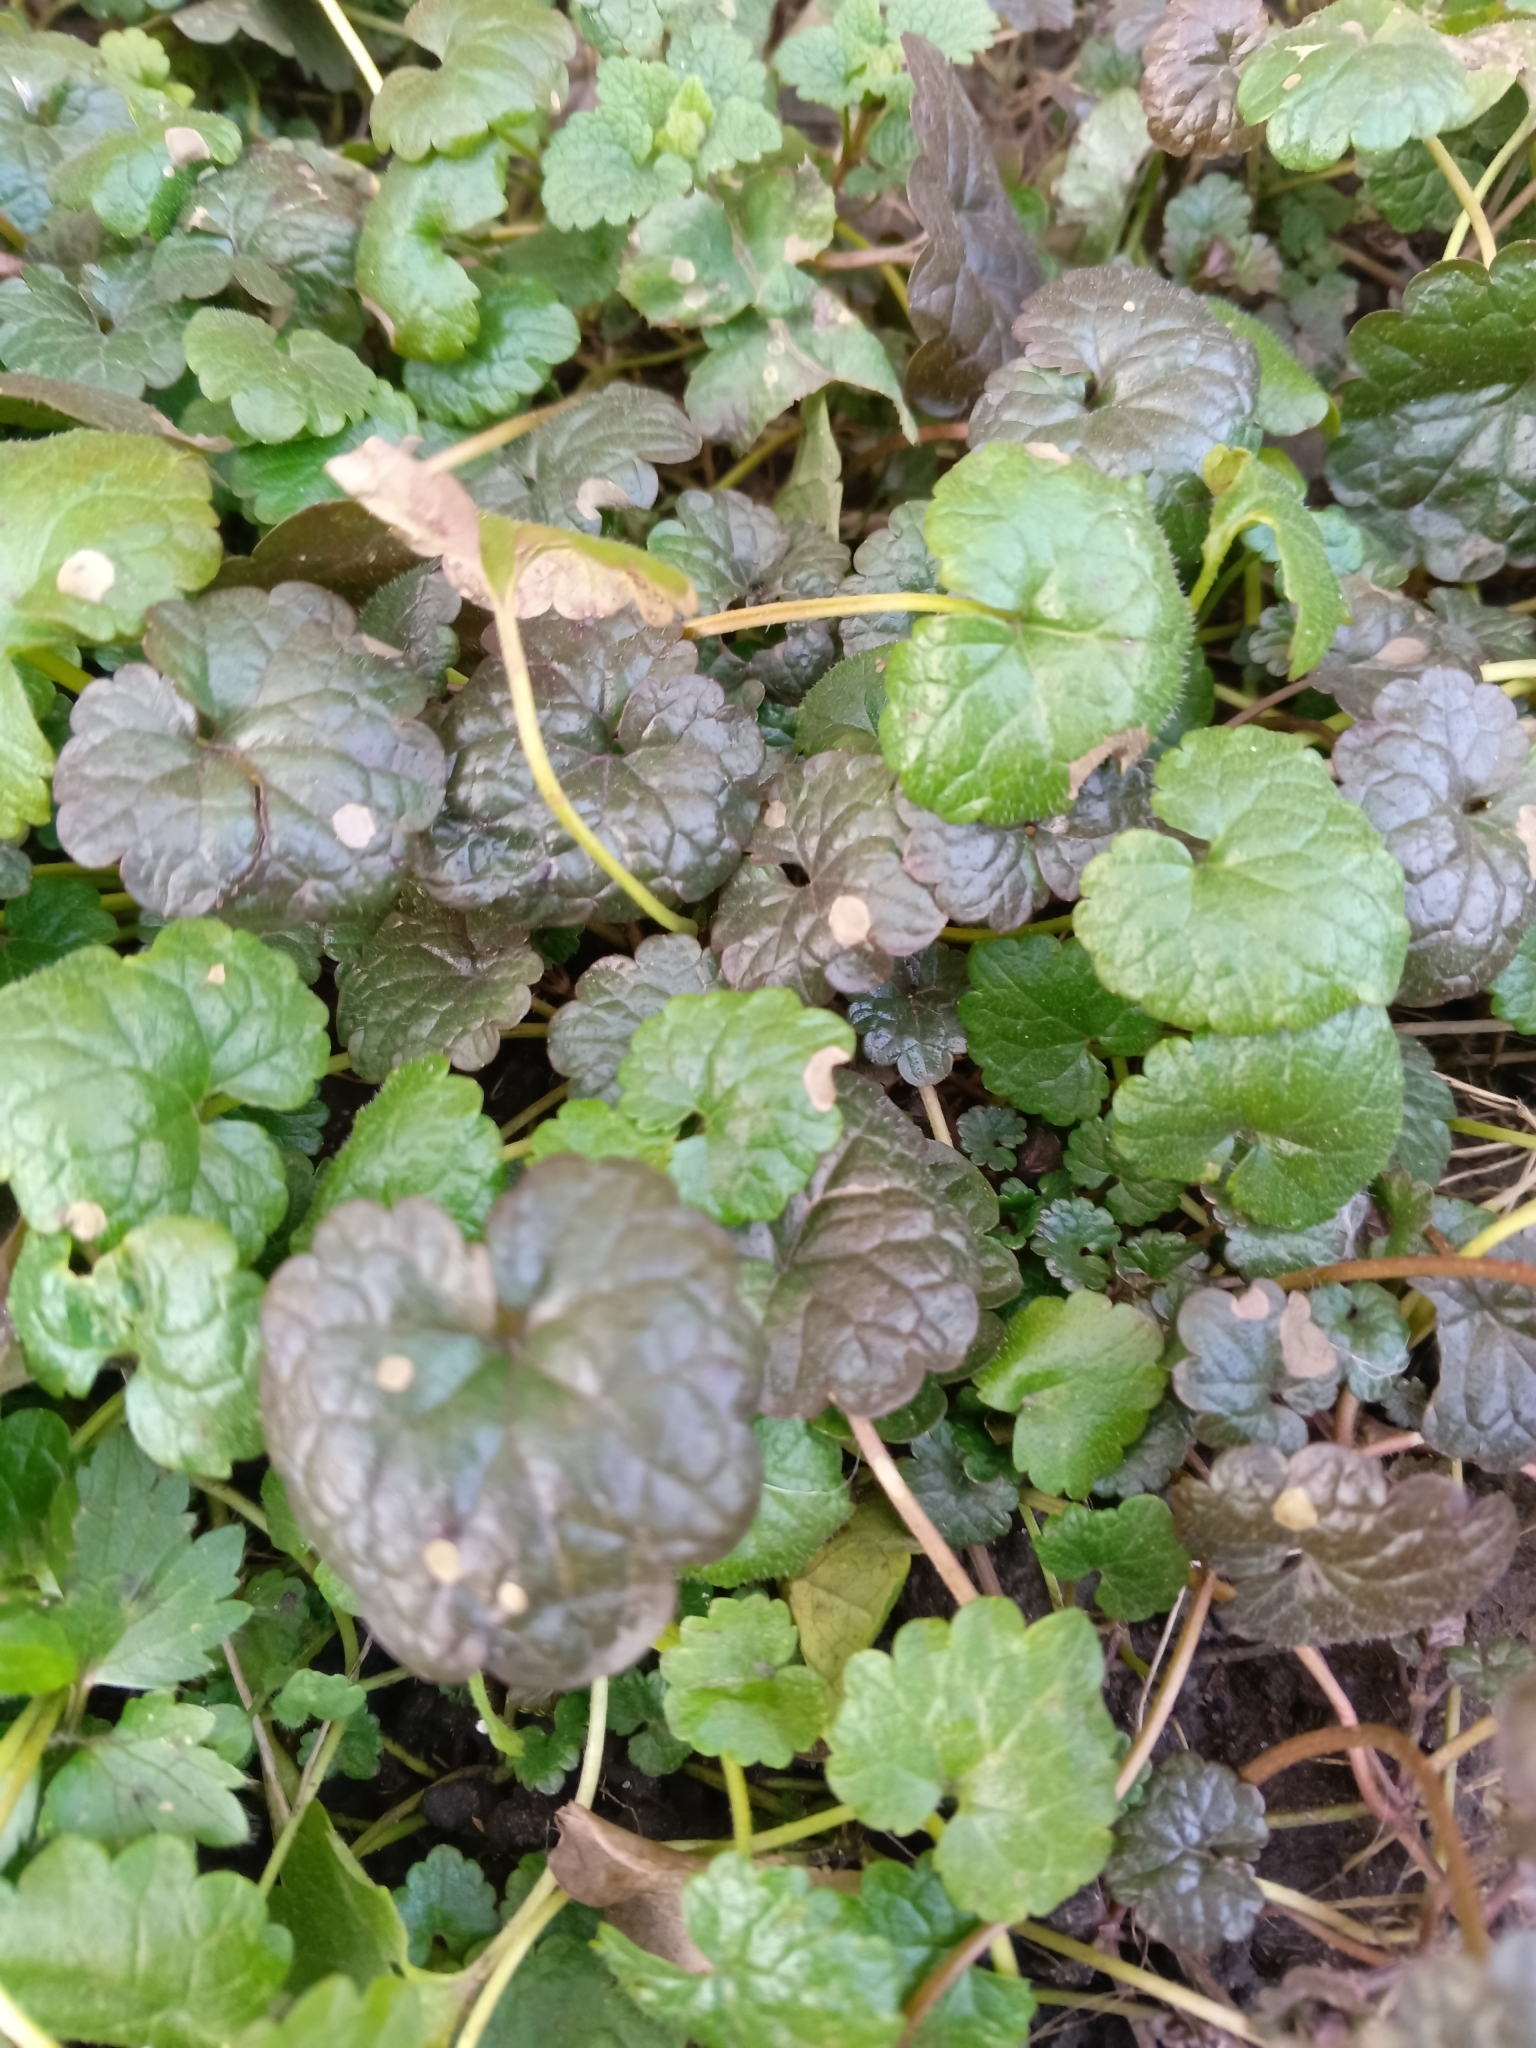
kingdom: Plantae
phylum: Tracheophyta
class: Magnoliopsida
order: Lamiales
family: Lamiaceae
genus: Glechoma
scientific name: Glechoma hederacea
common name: Ground ivy
